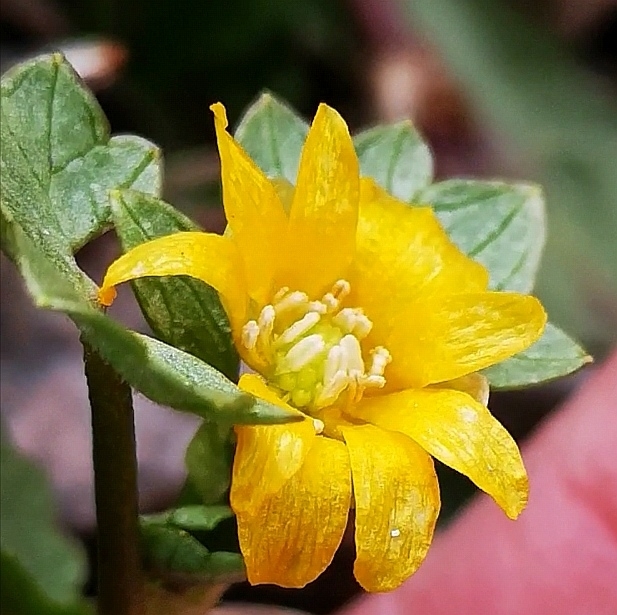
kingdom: Plantae
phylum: Tracheophyta
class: Magnoliopsida
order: Ranunculales
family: Ranunculaceae
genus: Ficaria
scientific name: Ficaria verna
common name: Lesser celandine
